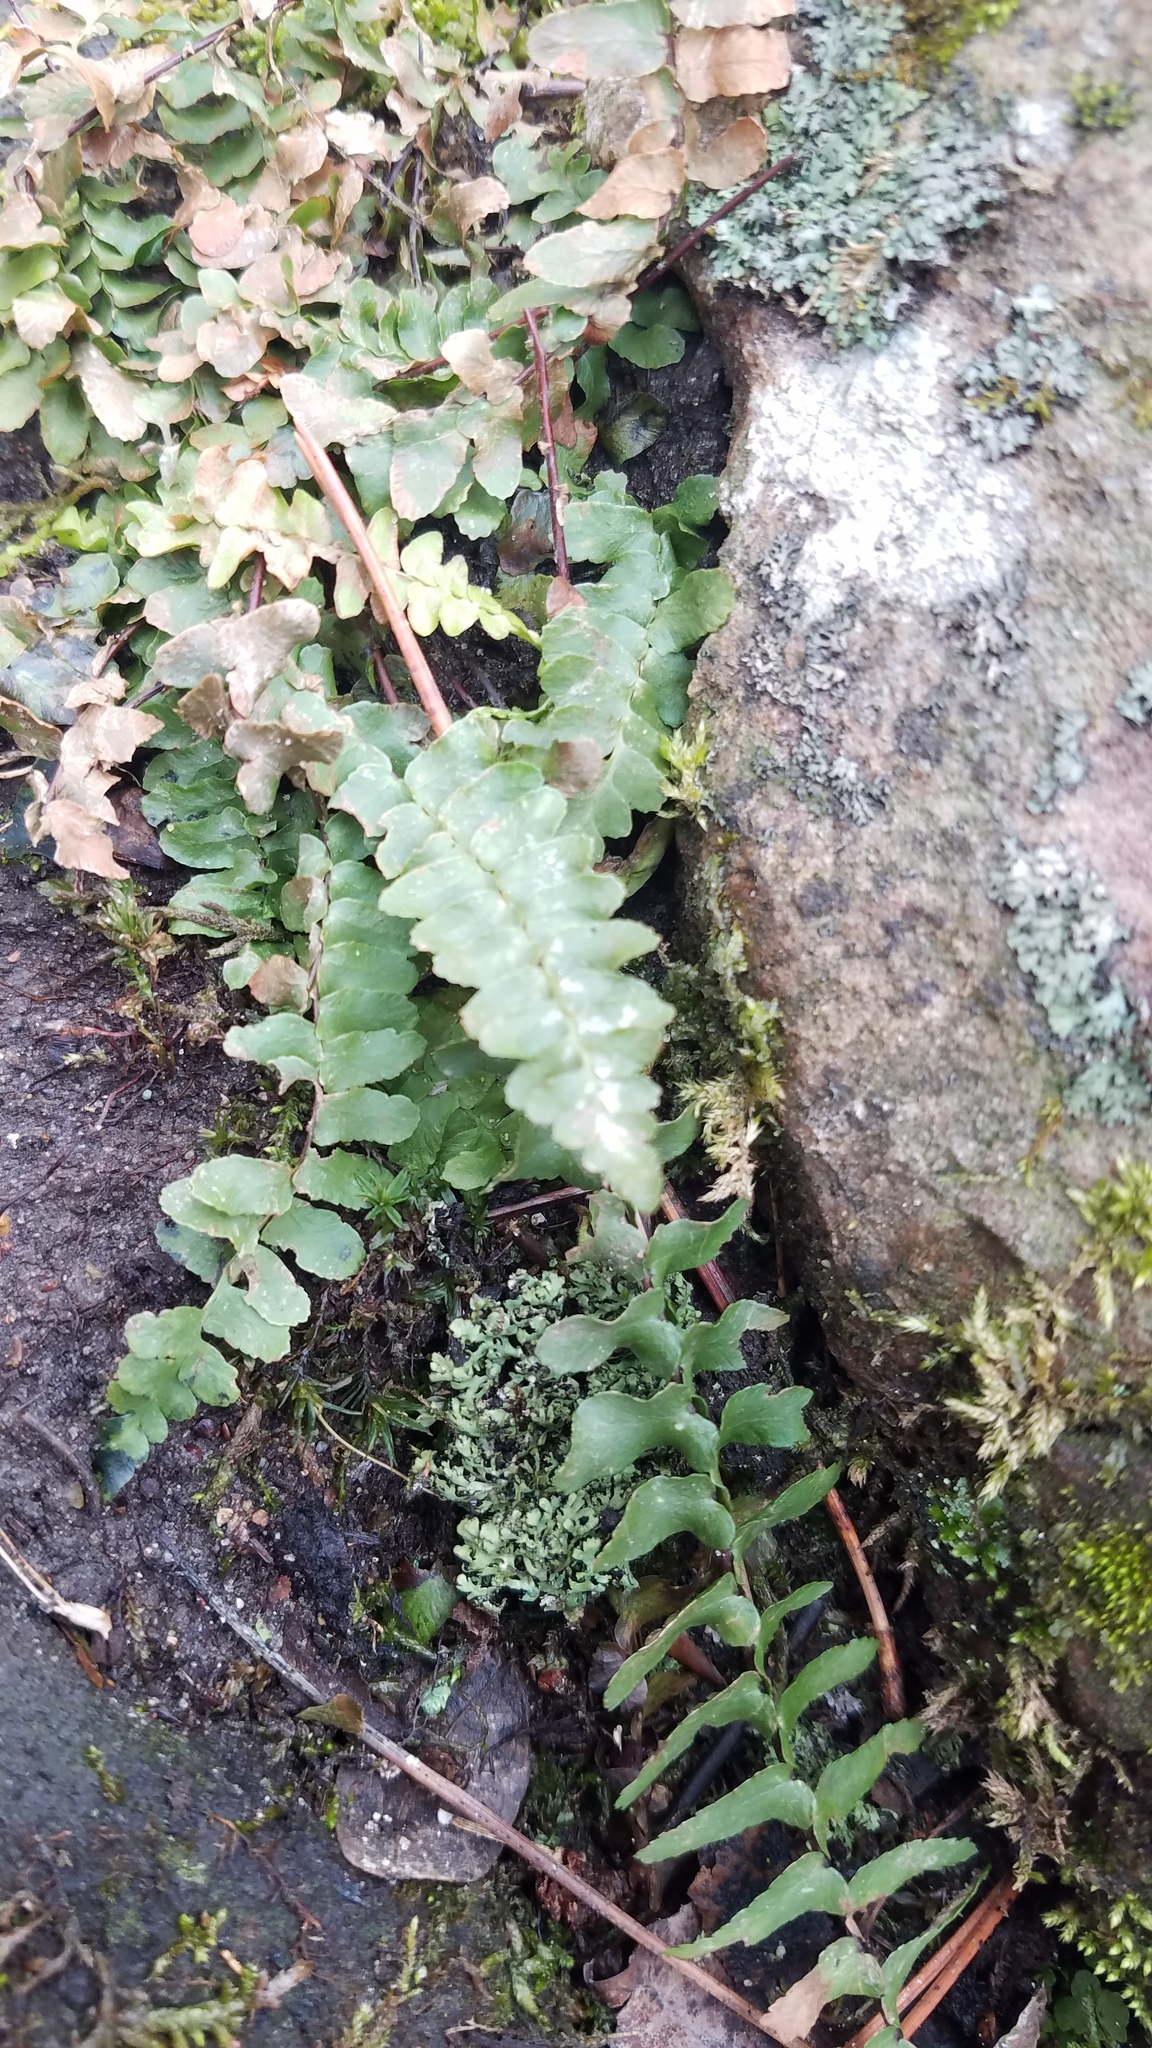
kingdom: Plantae
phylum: Tracheophyta
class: Polypodiopsida
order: Polypodiales
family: Aspleniaceae
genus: Asplenium
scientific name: Asplenium platyneuron
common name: Ebony spleenwort
